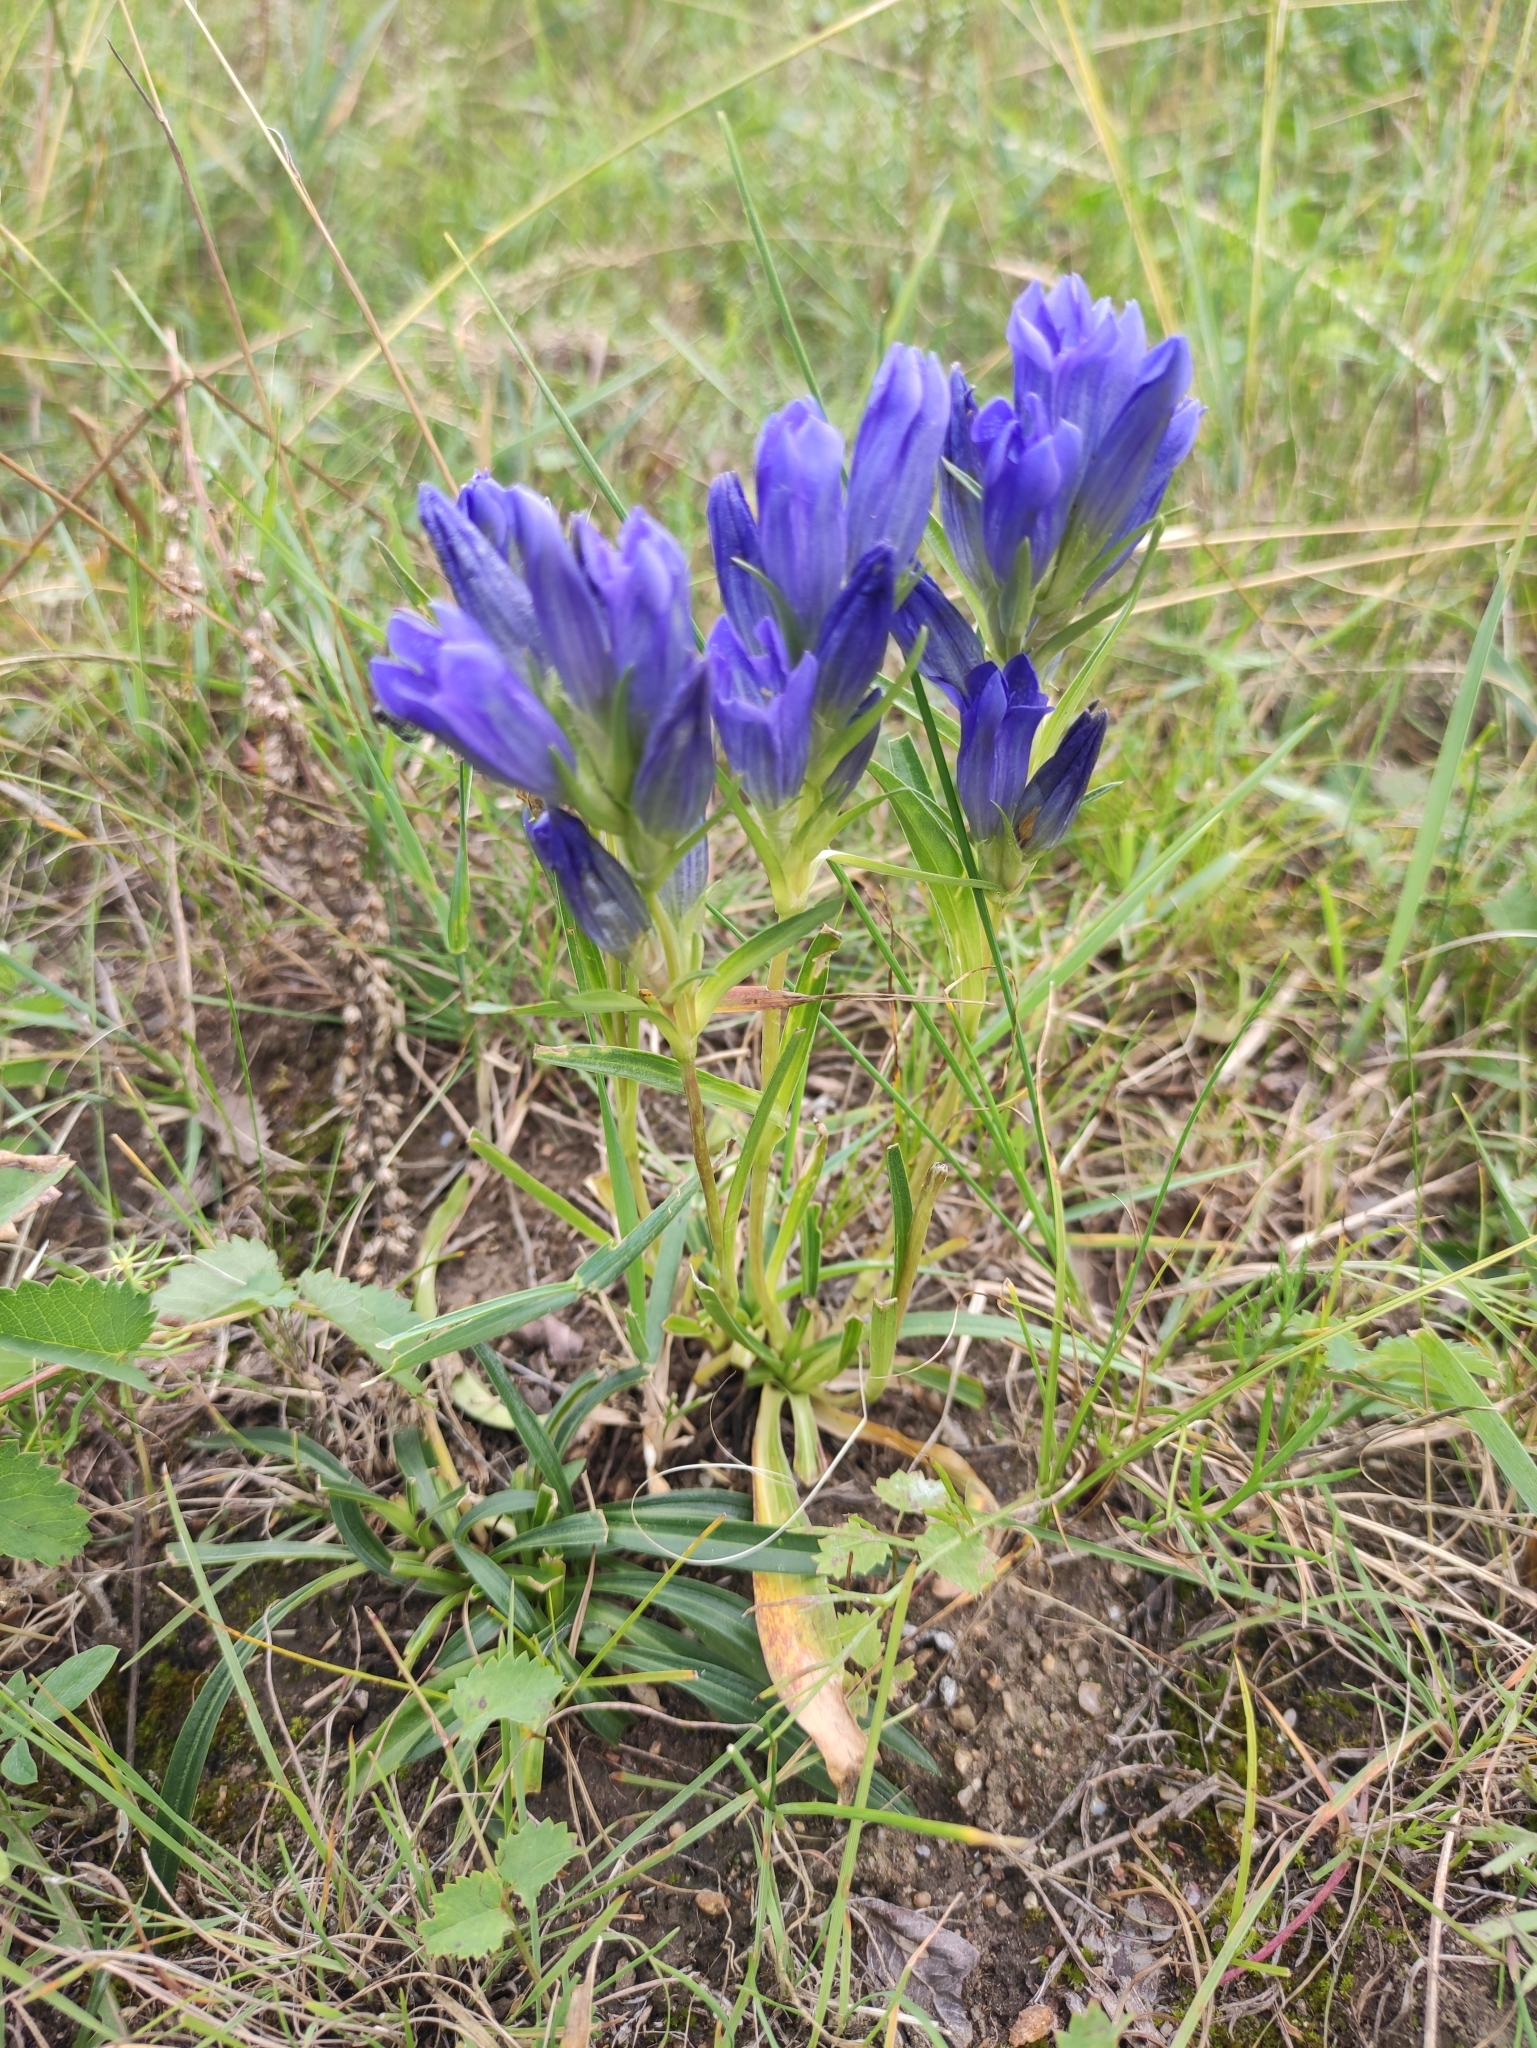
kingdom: Plantae
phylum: Tracheophyta
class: Magnoliopsida
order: Gentianales
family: Gentianaceae
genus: Gentiana
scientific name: Gentiana decumbens
